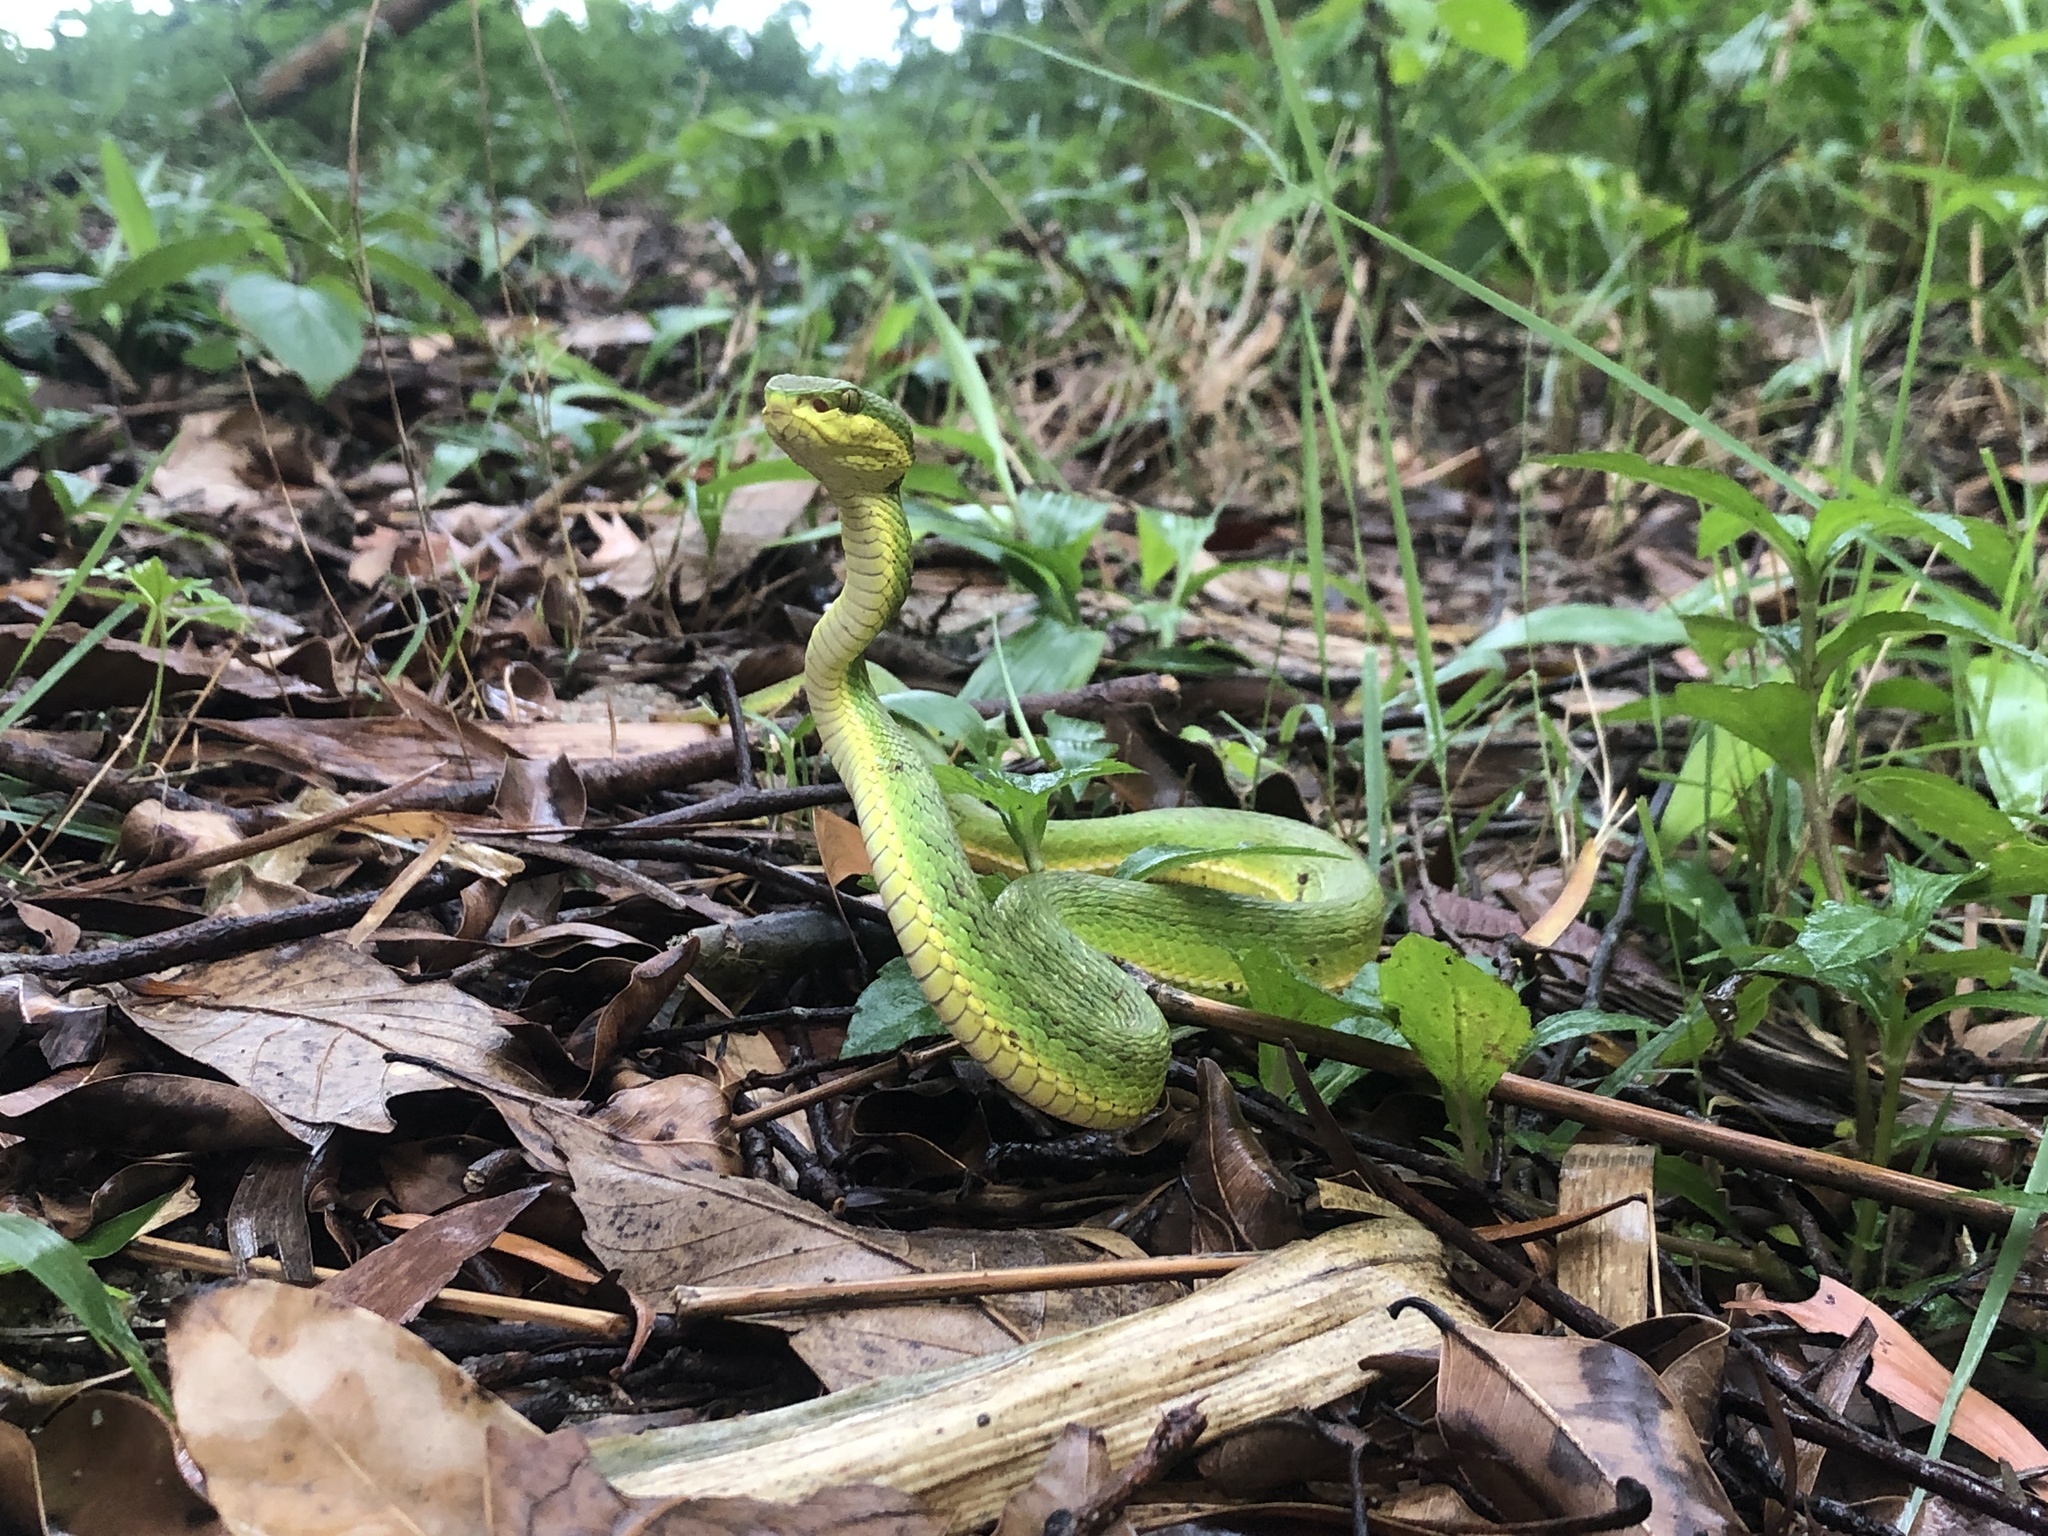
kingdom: Animalia
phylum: Chordata
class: Squamata
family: Viperidae
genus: Trimeresurus
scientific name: Trimeresurus albolabris
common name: White-lipped pitviper
